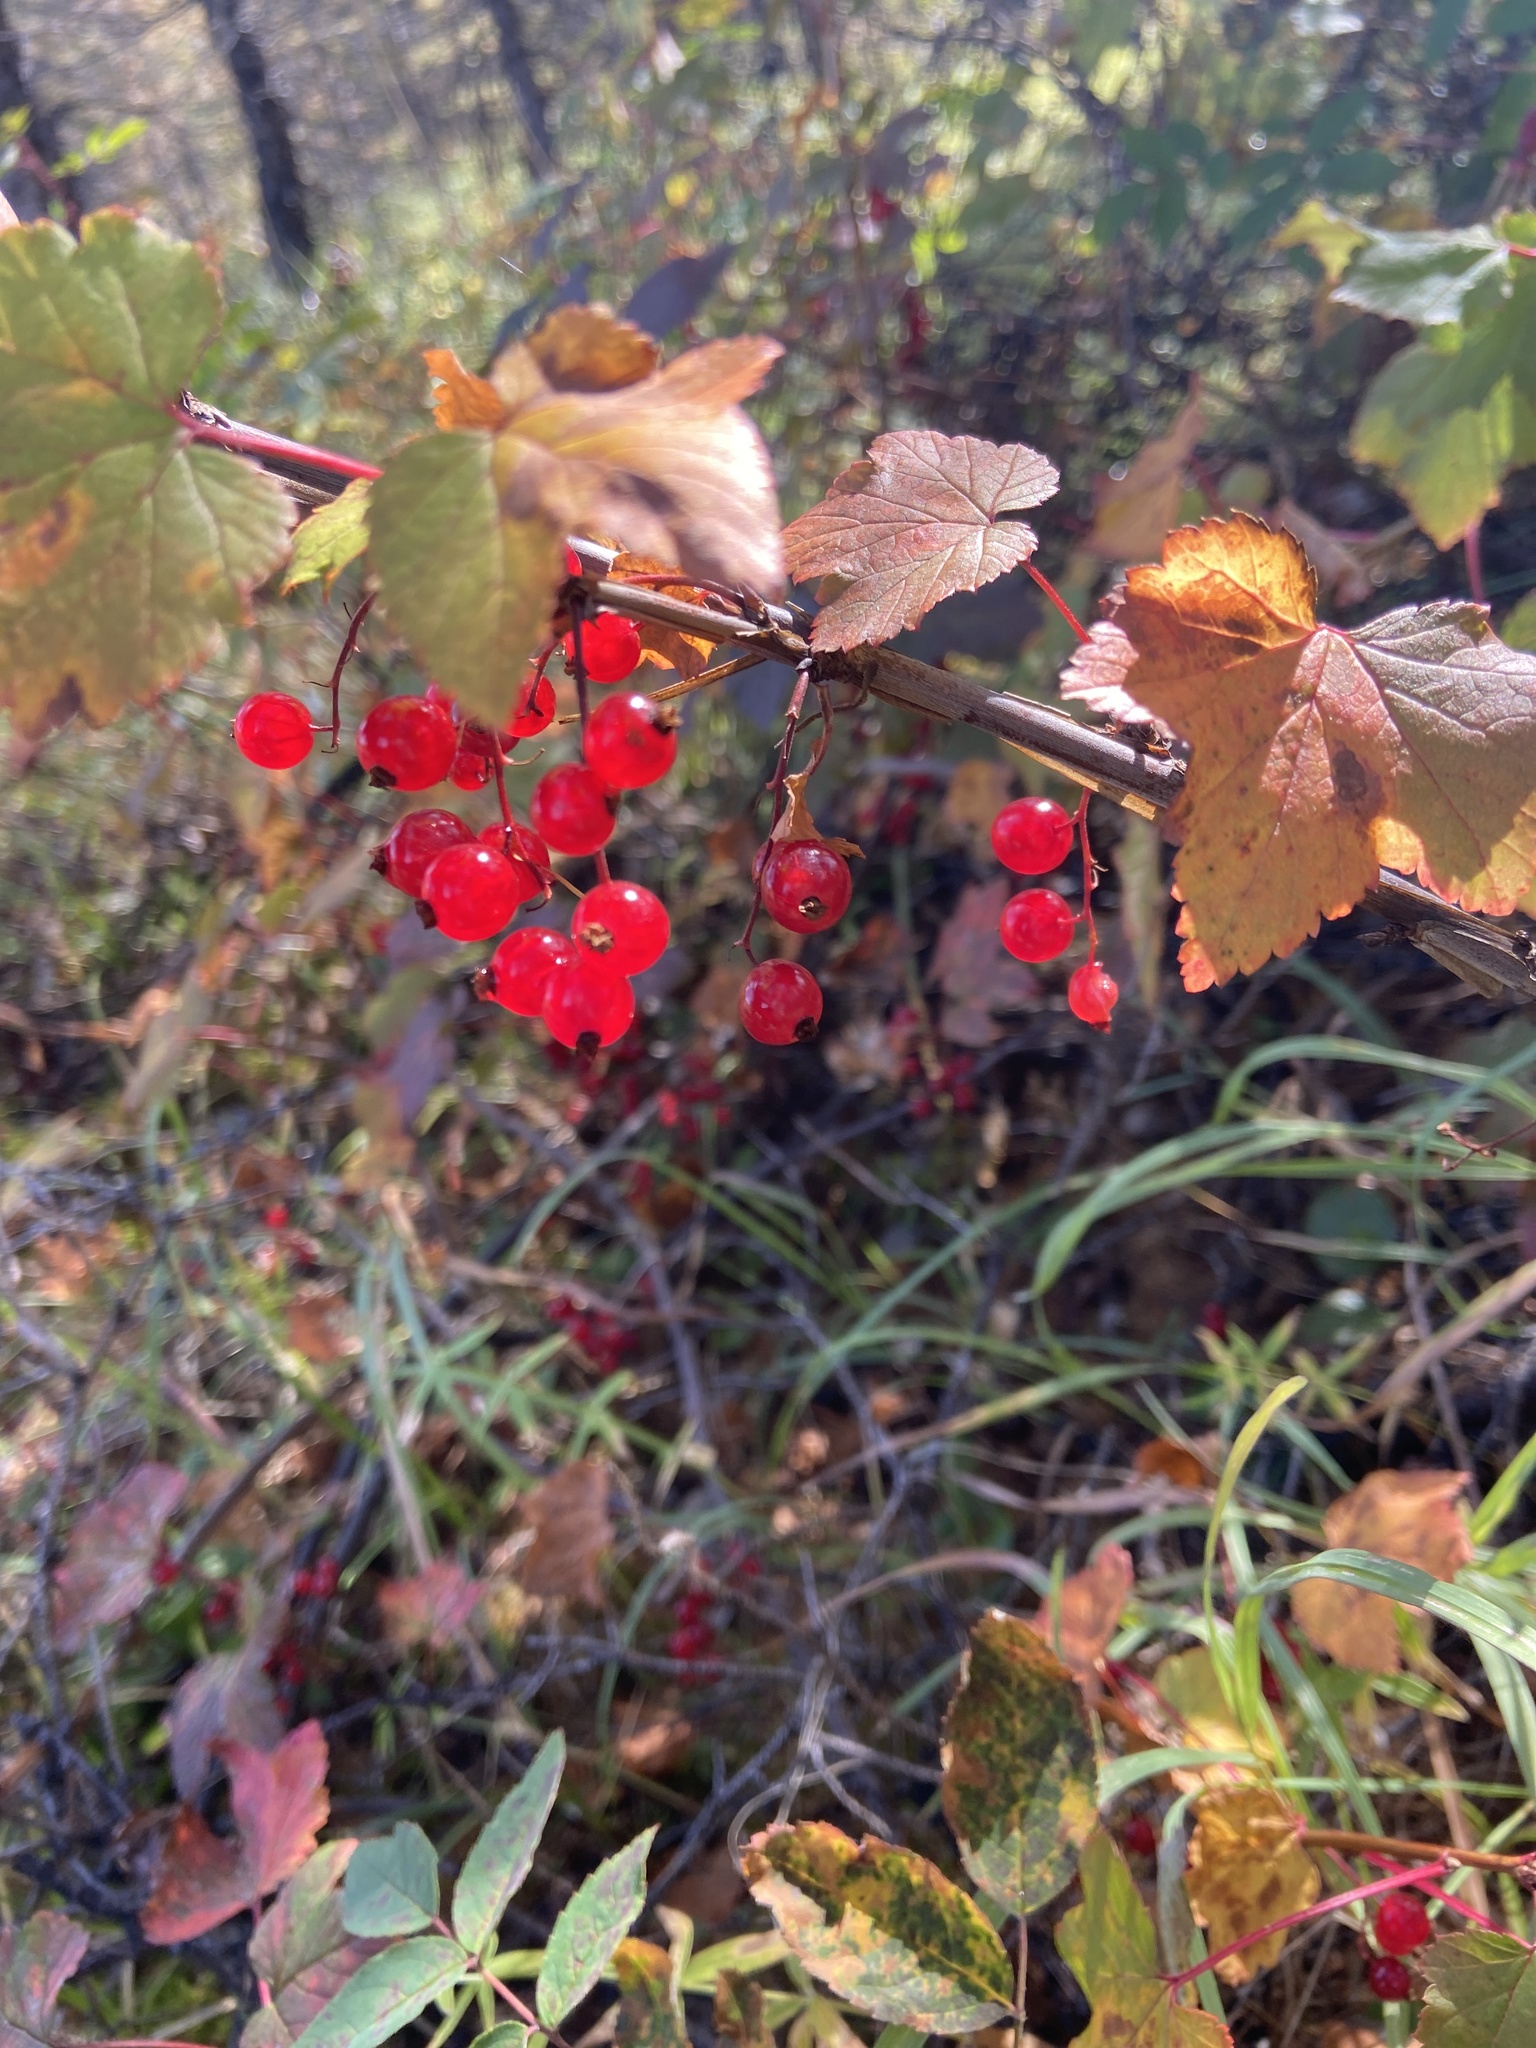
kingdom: Plantae
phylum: Tracheophyta
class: Magnoliopsida
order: Saxifragales
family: Grossulariaceae
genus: Ribes
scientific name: Ribes triste
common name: Swamp red currant
